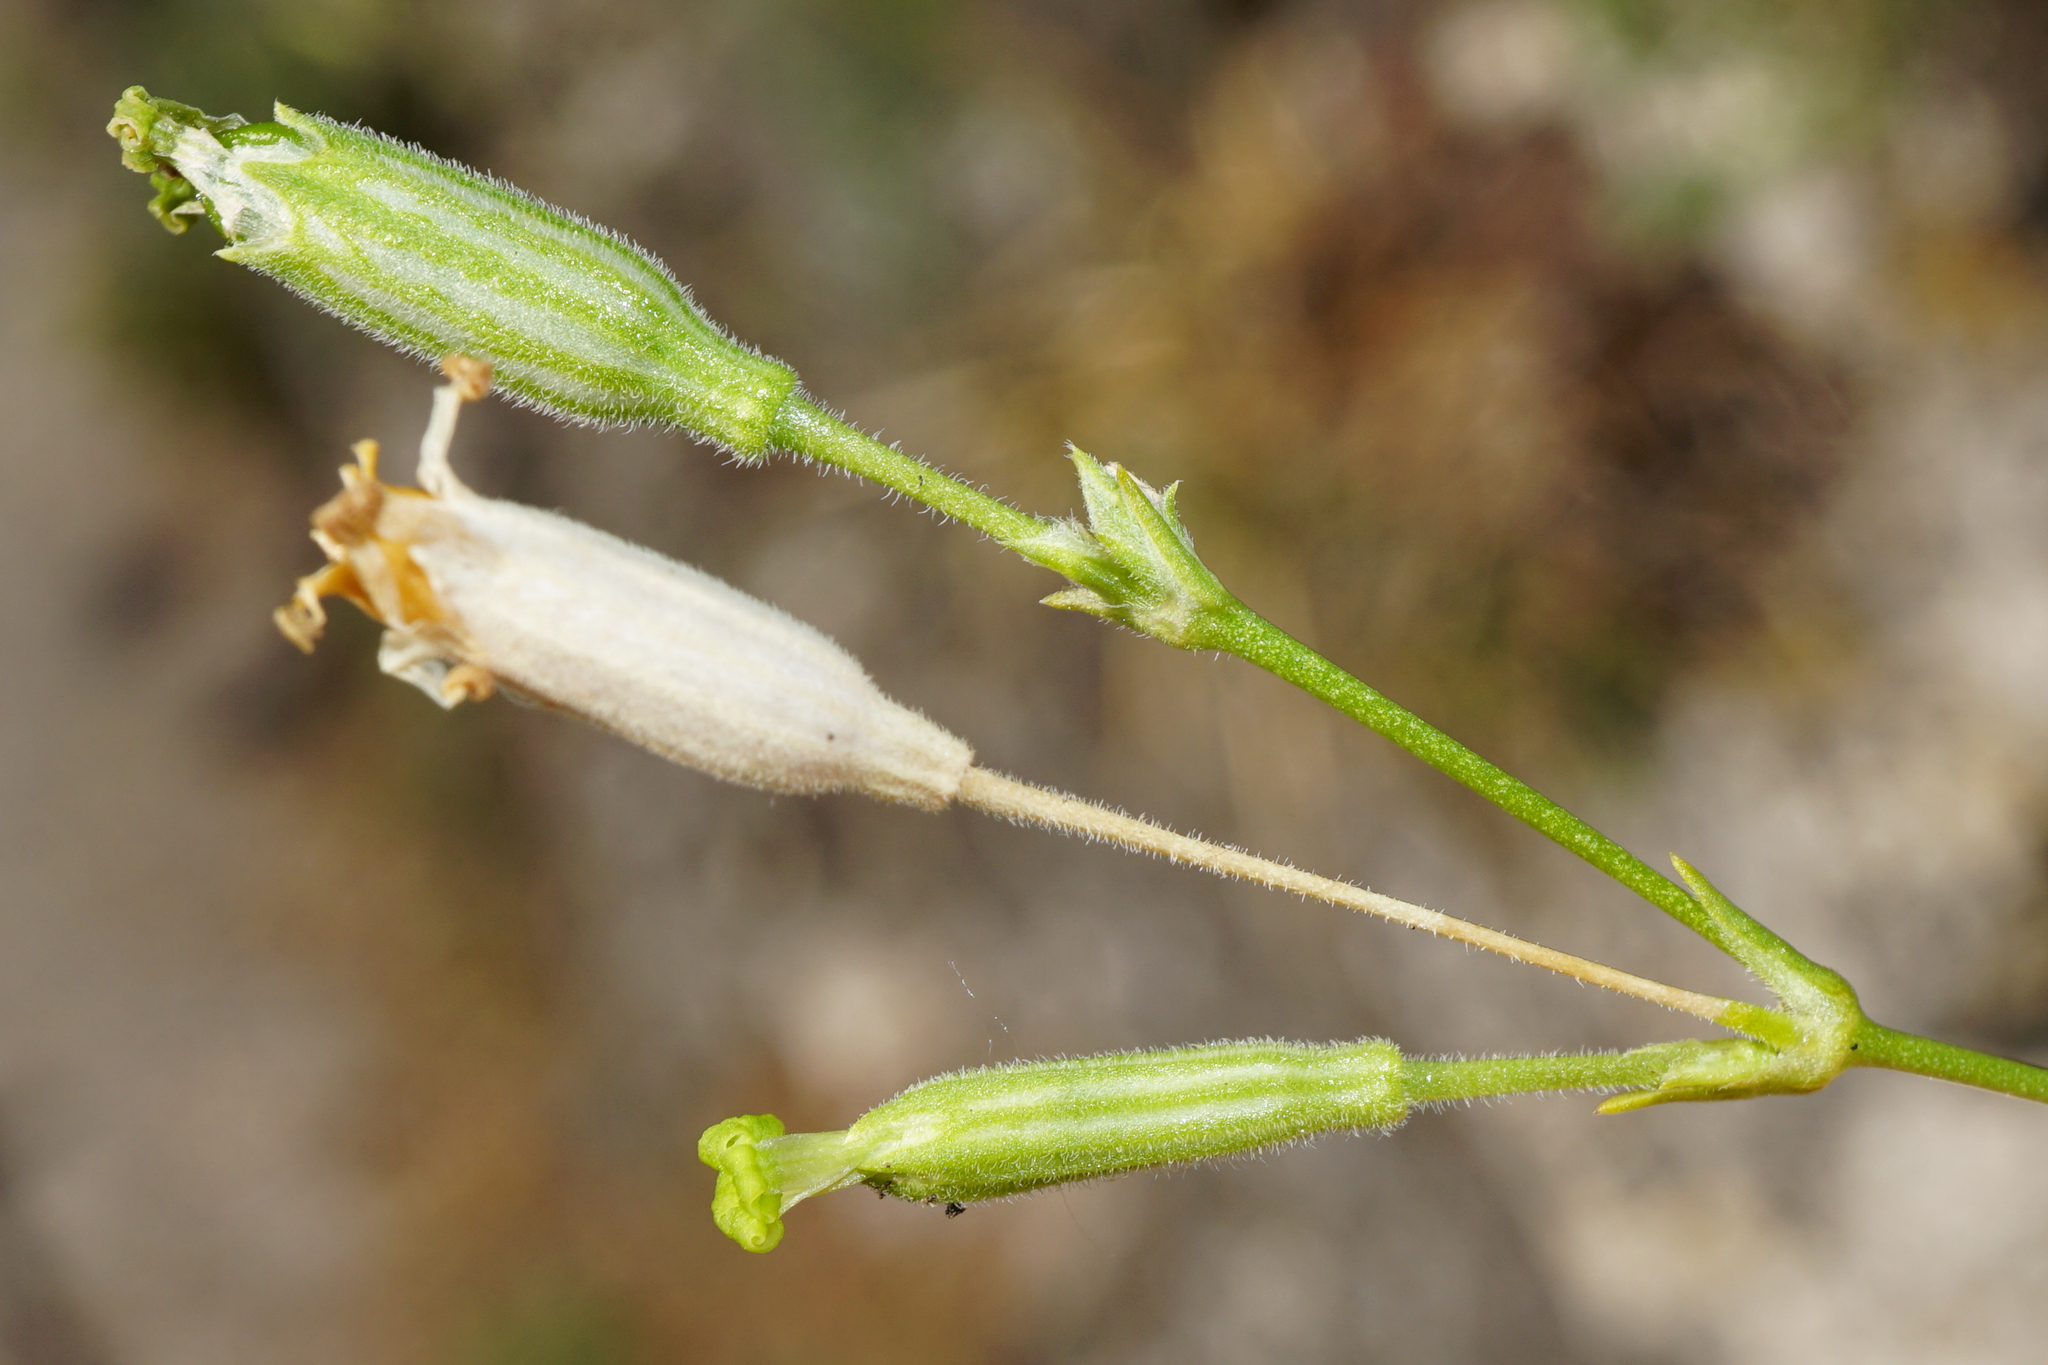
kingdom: Plantae
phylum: Tracheophyta
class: Magnoliopsida
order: Caryophyllales
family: Caryophyllaceae
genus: Silene
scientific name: Silene flavescens
